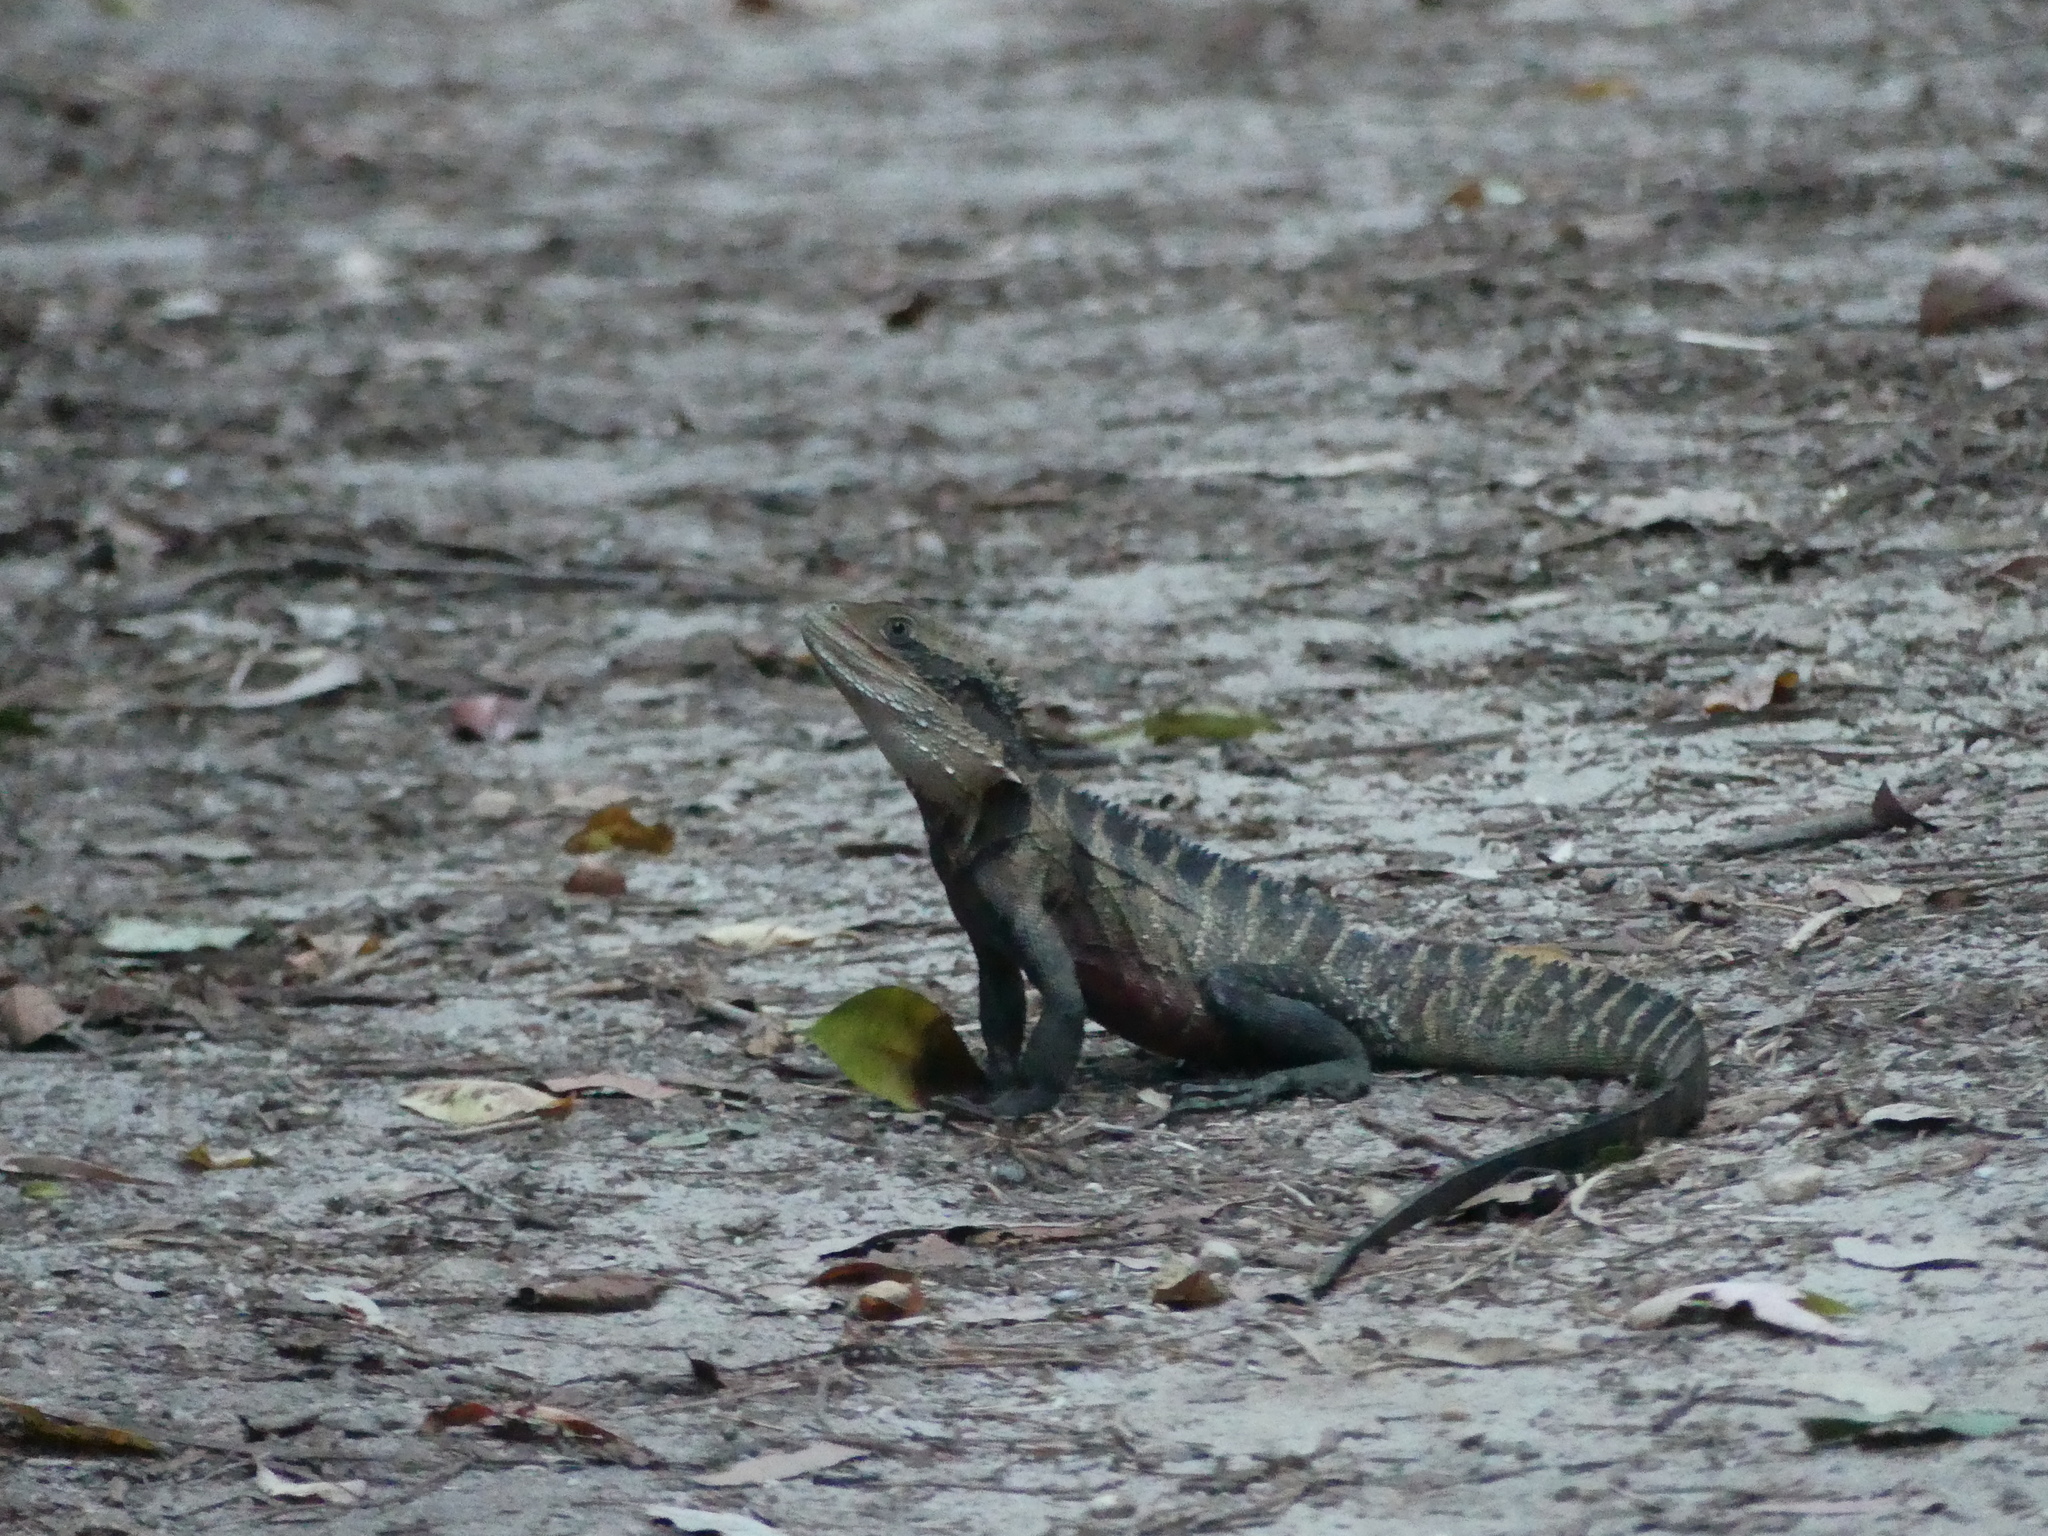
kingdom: Animalia
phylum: Chordata
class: Squamata
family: Agamidae
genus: Intellagama
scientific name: Intellagama lesueurii
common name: Eastern water dragon
